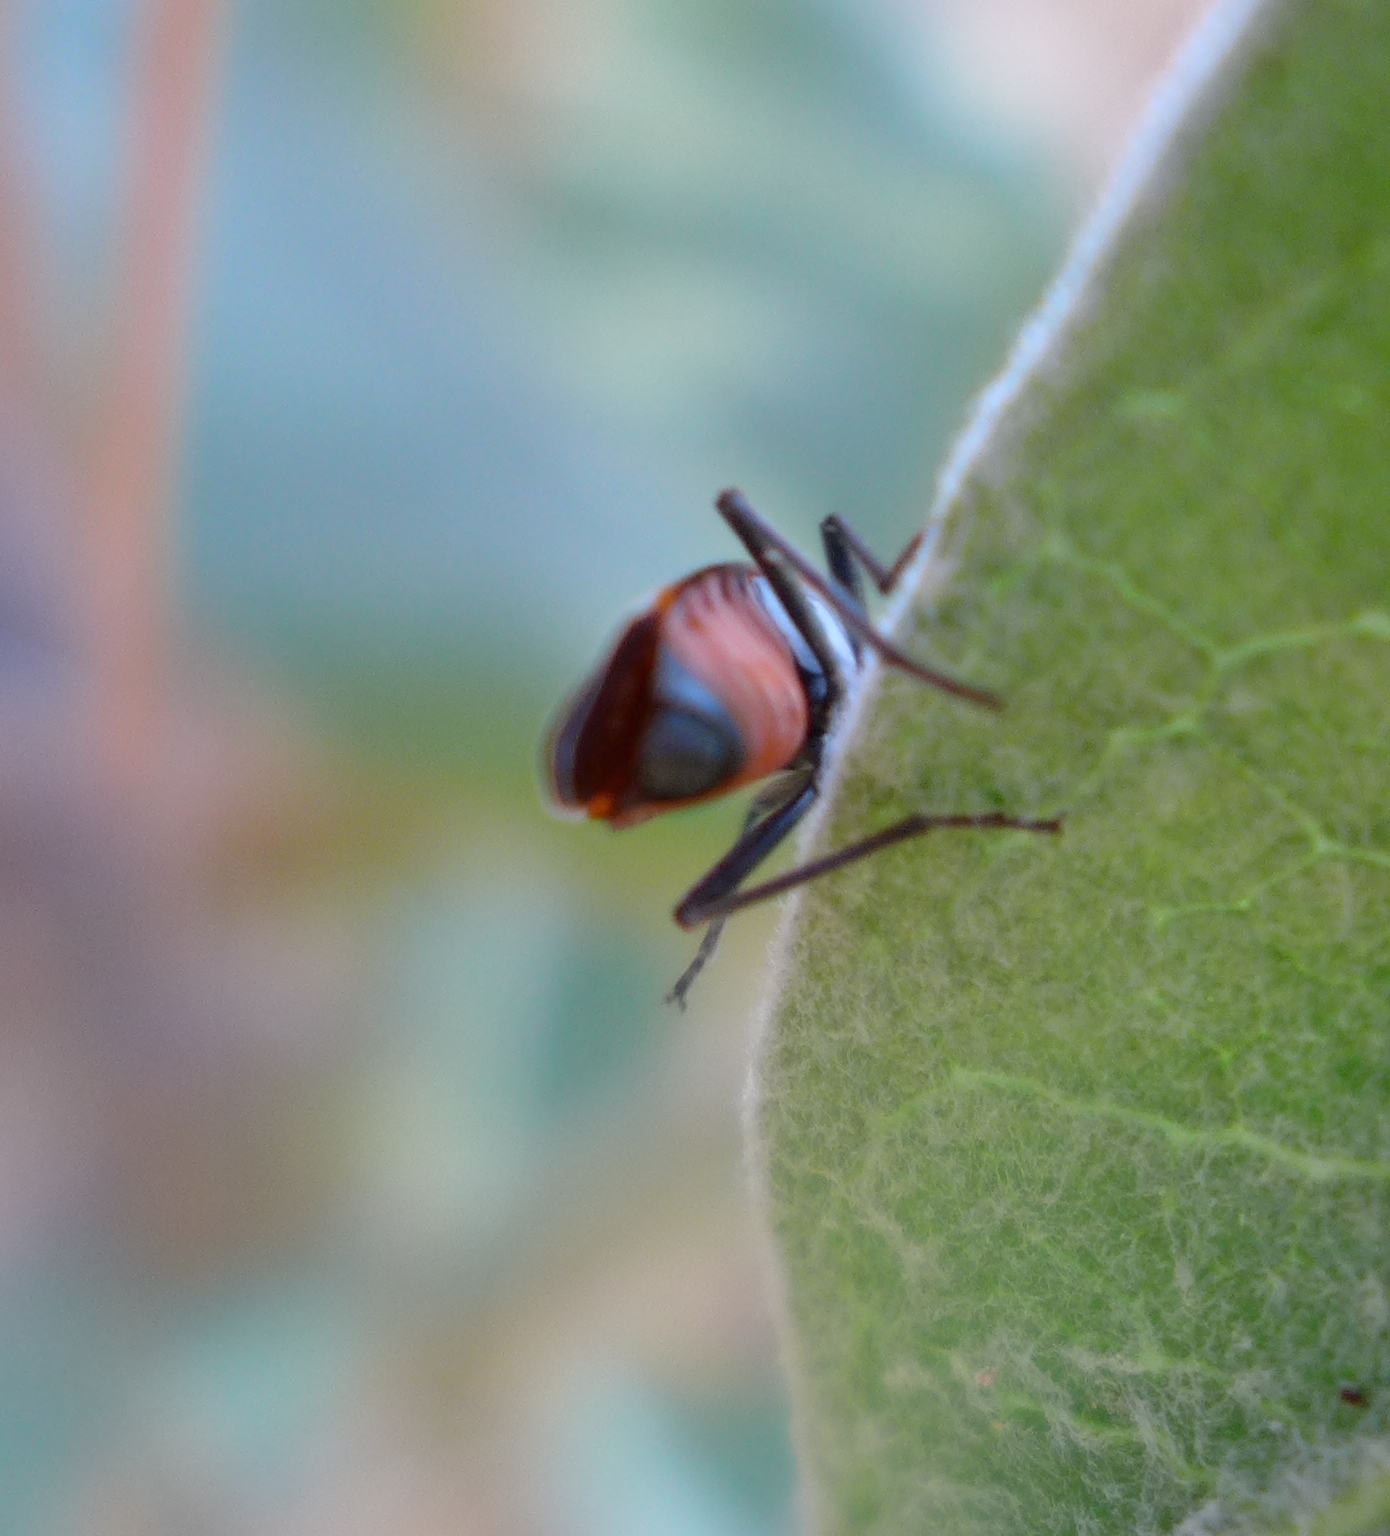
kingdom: Animalia
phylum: Arthropoda
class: Insecta
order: Hemiptera
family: Lygaeidae
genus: Lygaeus
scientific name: Lygaeus kalmii
